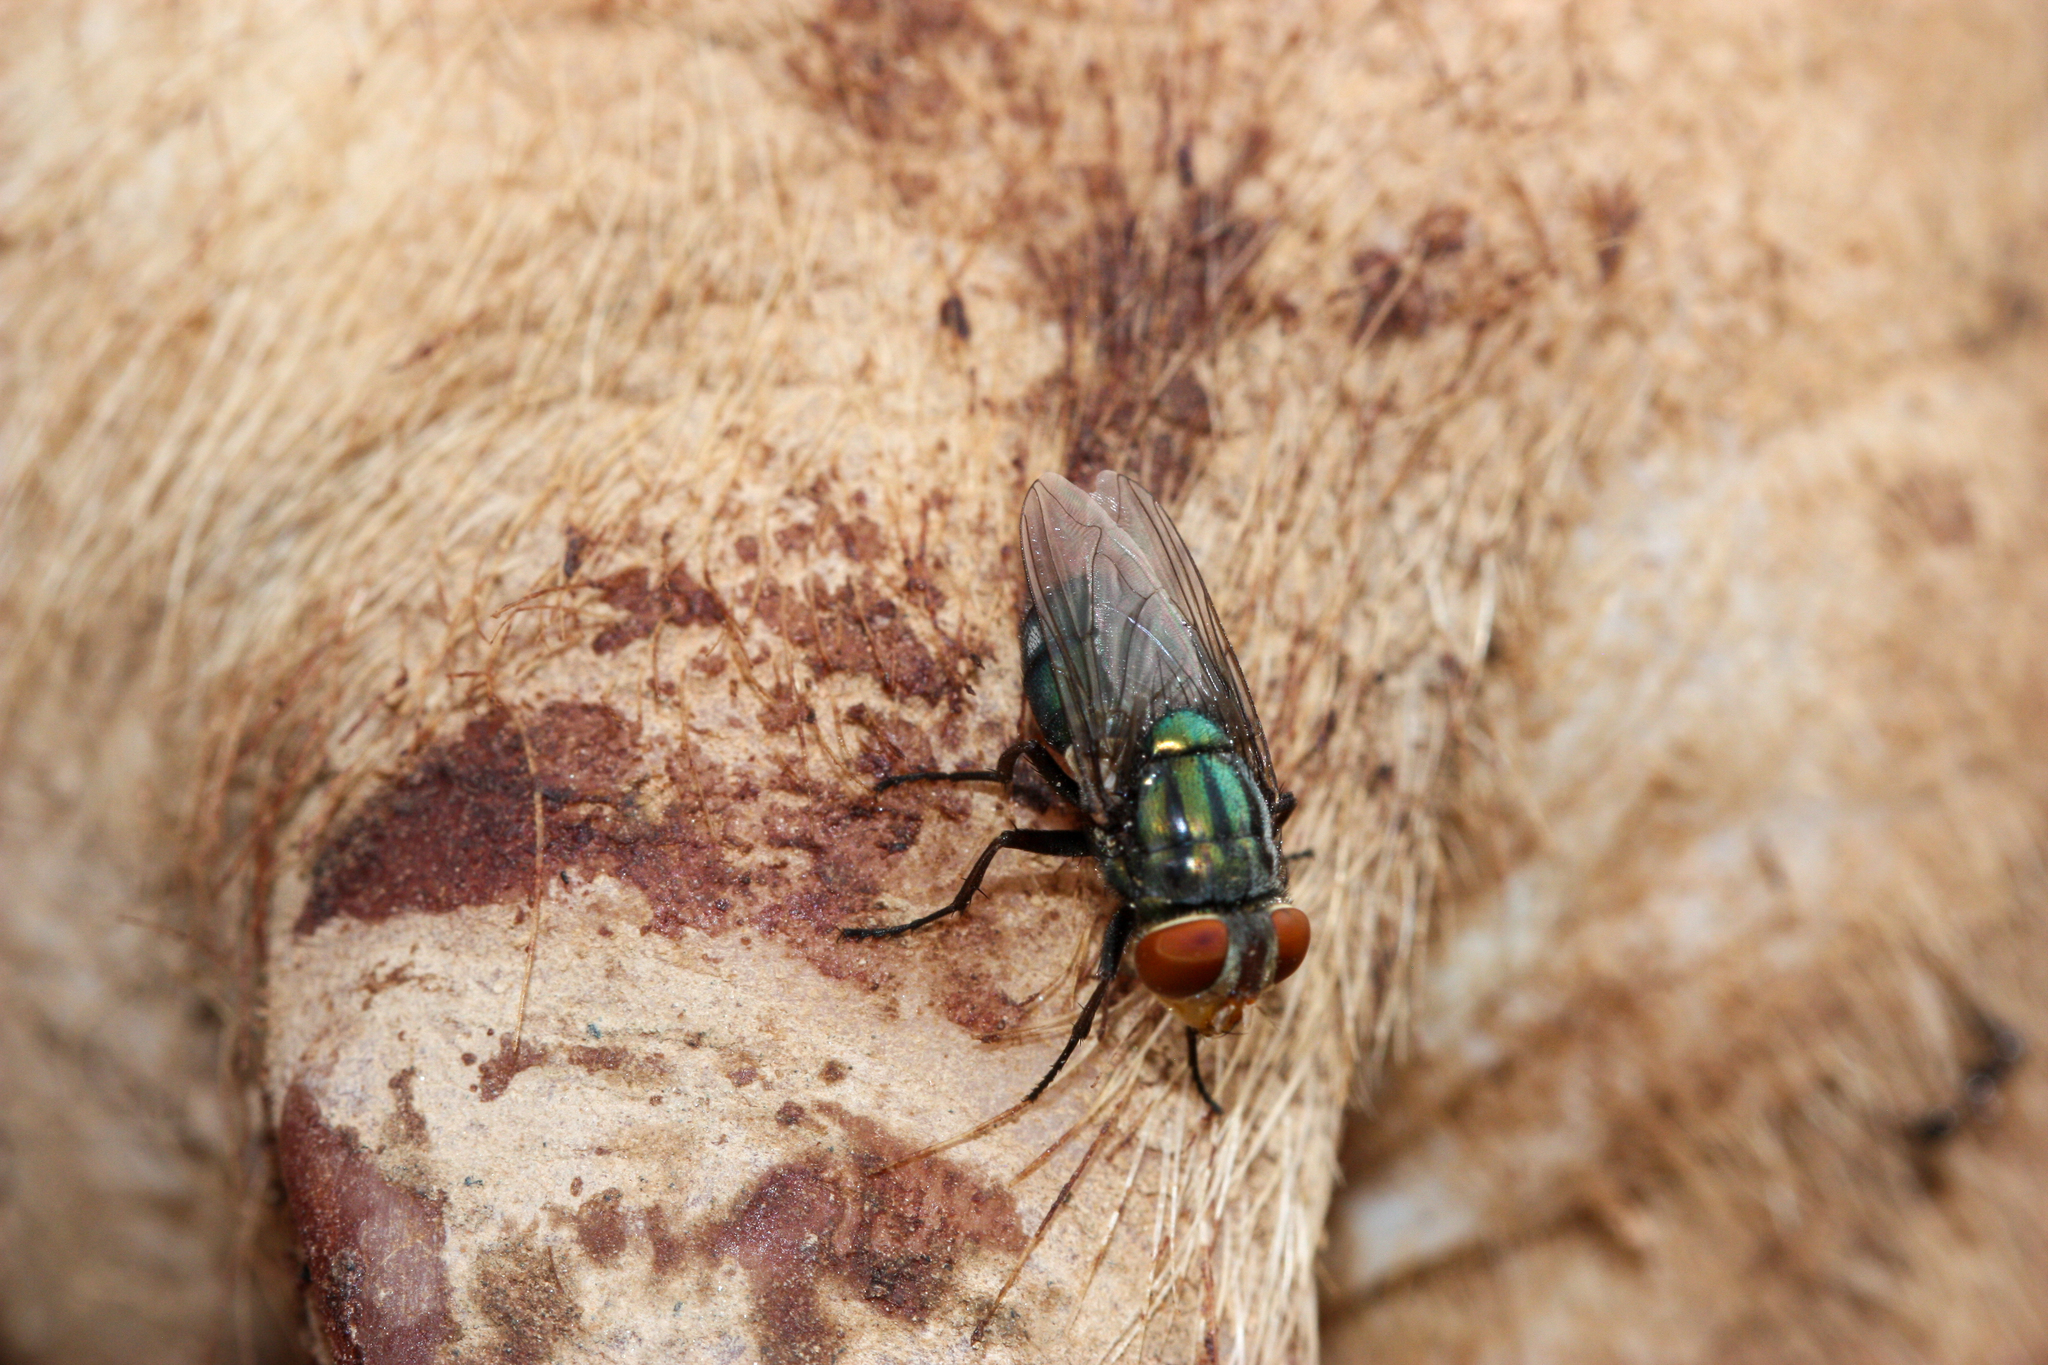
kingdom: Animalia
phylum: Arthropoda
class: Insecta
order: Diptera
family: Calliphoridae
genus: Cochliomyia
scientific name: Cochliomyia macellaria
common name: Secondary screwworm
